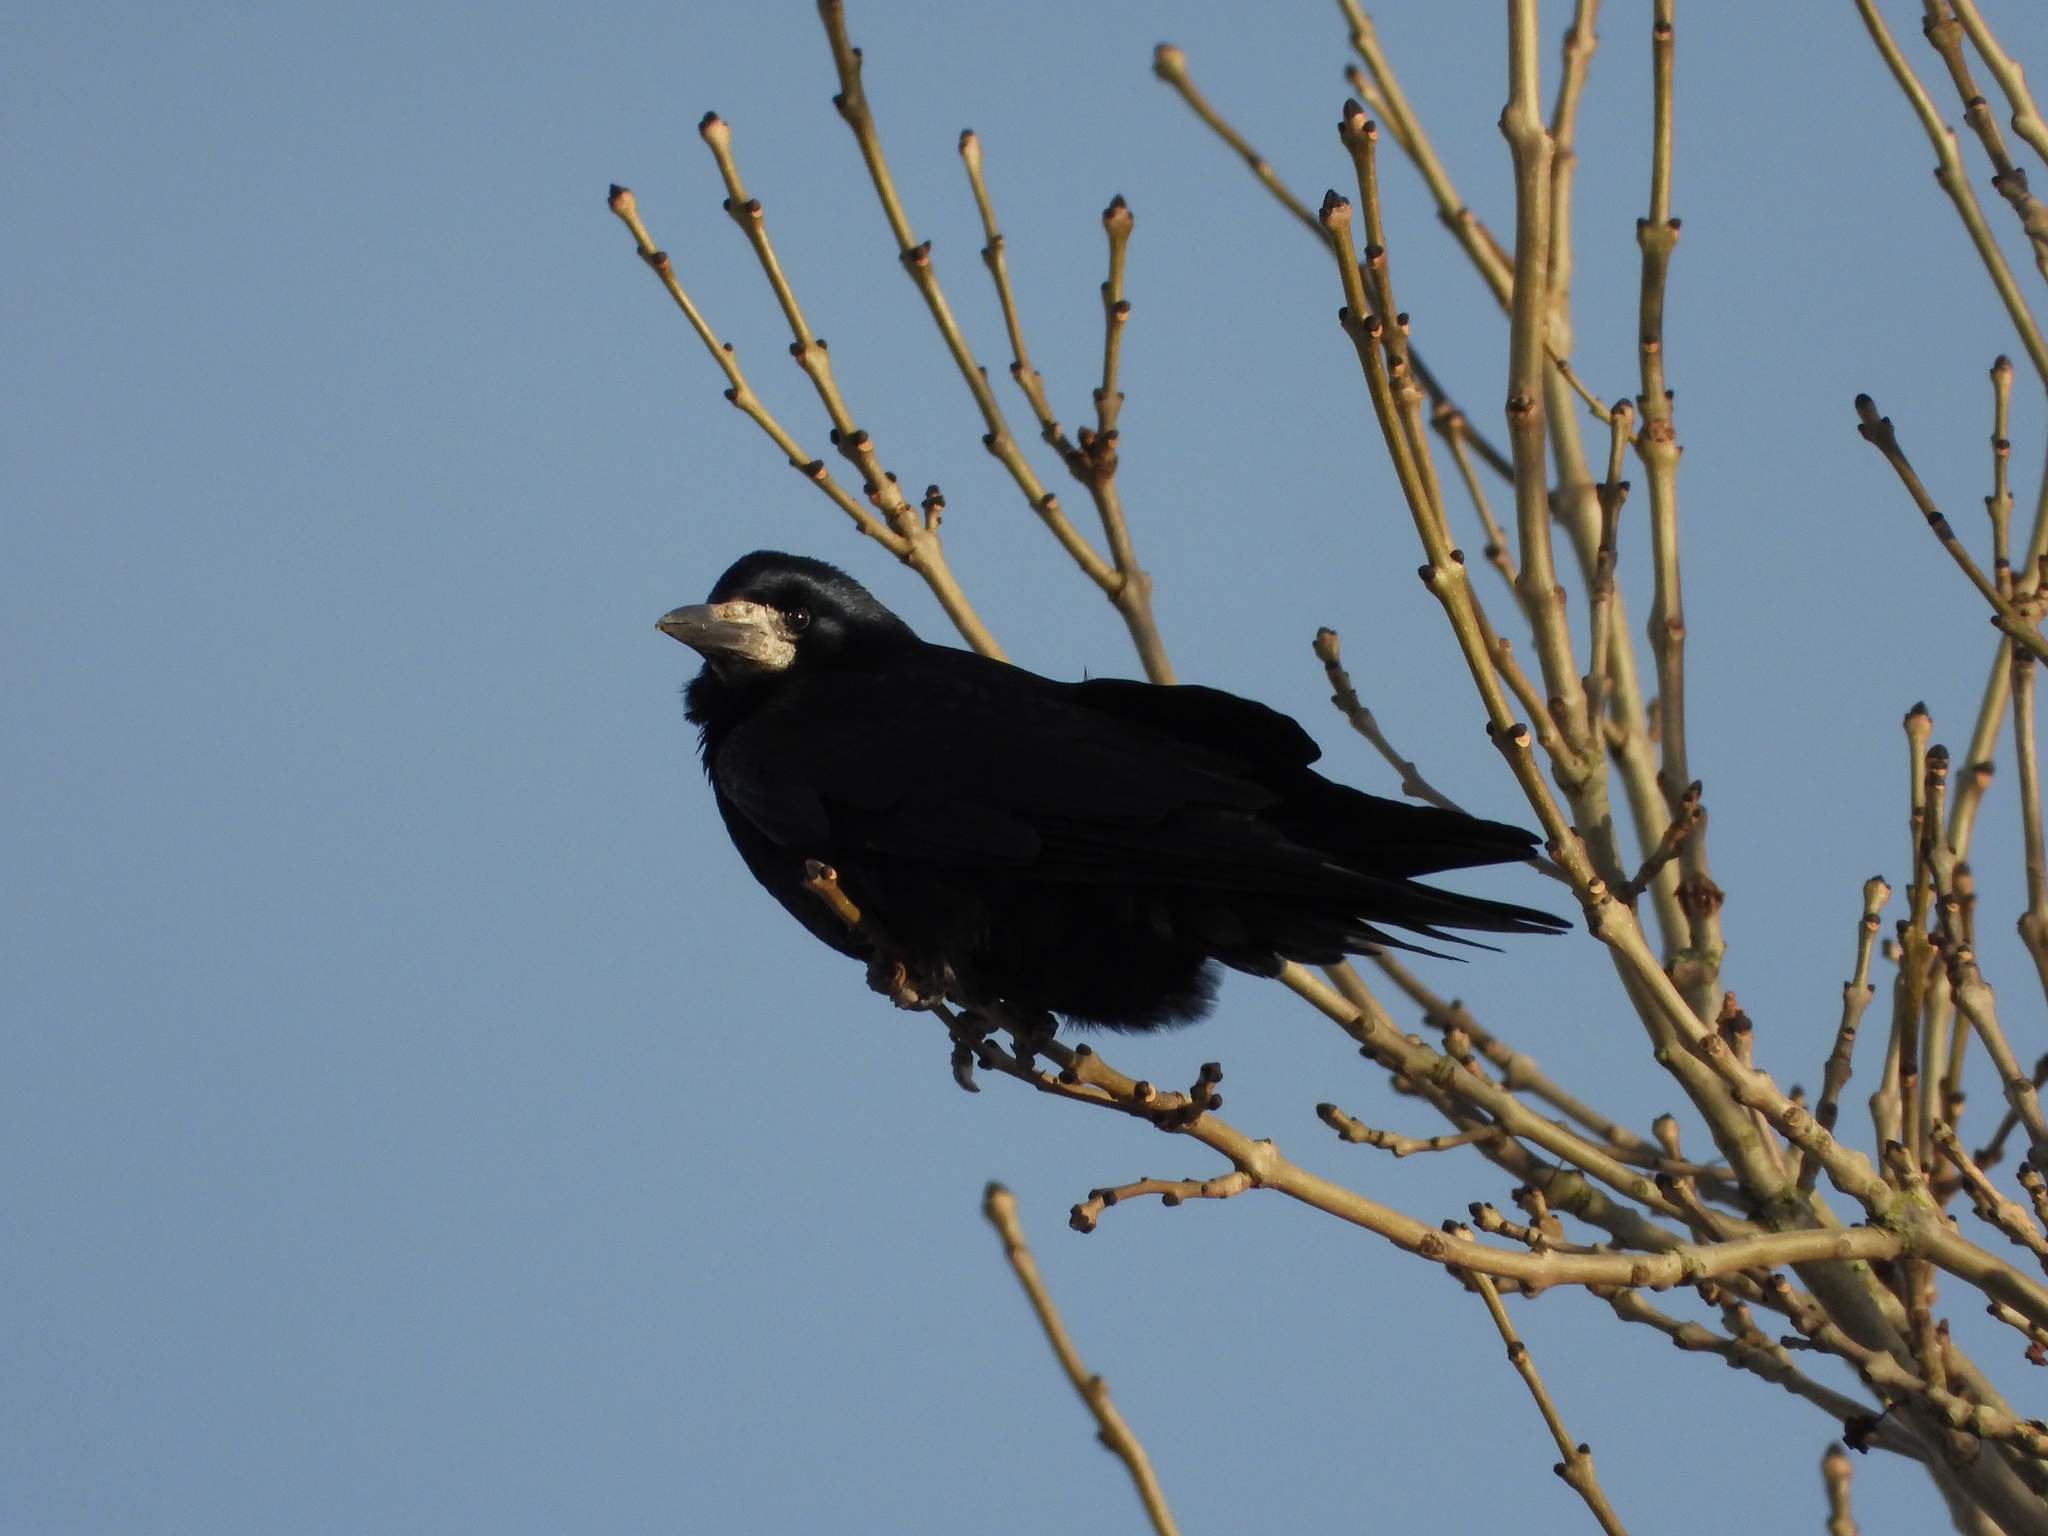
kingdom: Animalia
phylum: Chordata
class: Aves
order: Passeriformes
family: Corvidae
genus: Corvus
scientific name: Corvus frugilegus
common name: Rook
